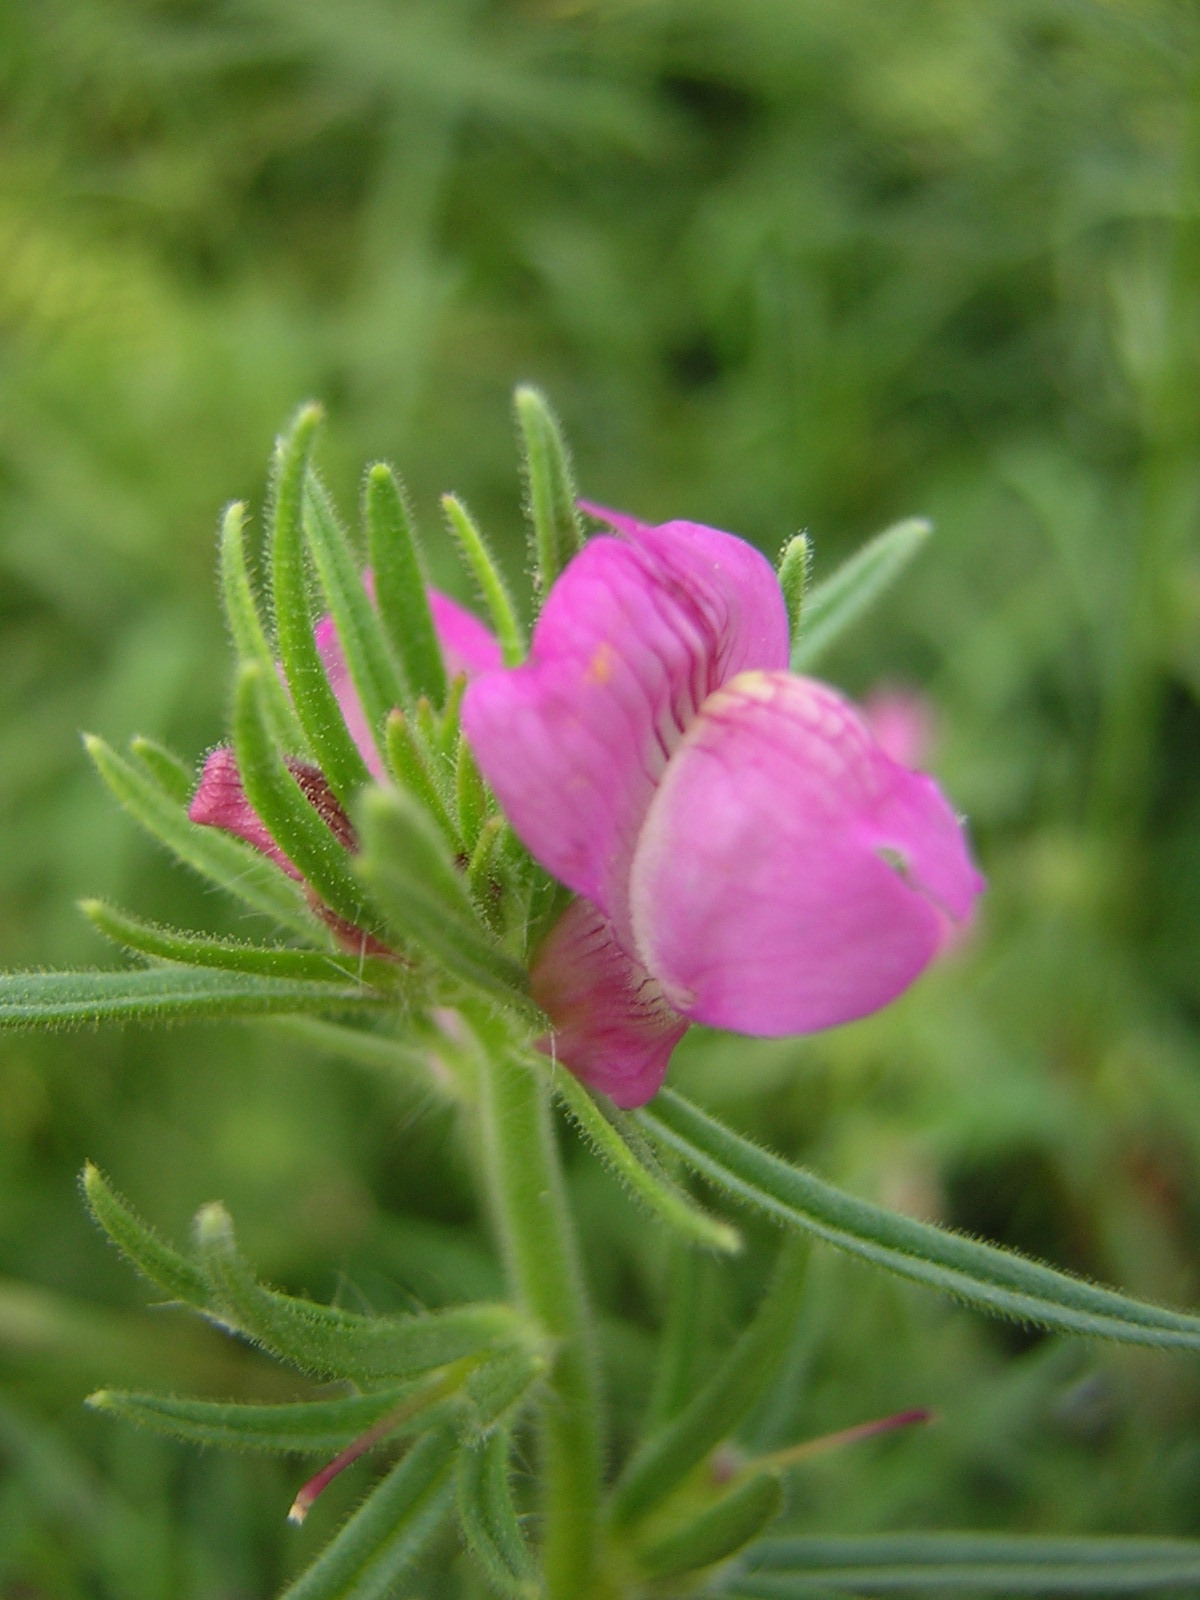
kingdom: Plantae
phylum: Tracheophyta
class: Magnoliopsida
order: Lamiales
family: Plantaginaceae
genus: Misopates
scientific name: Misopates orontium
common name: Weasel's-snout
